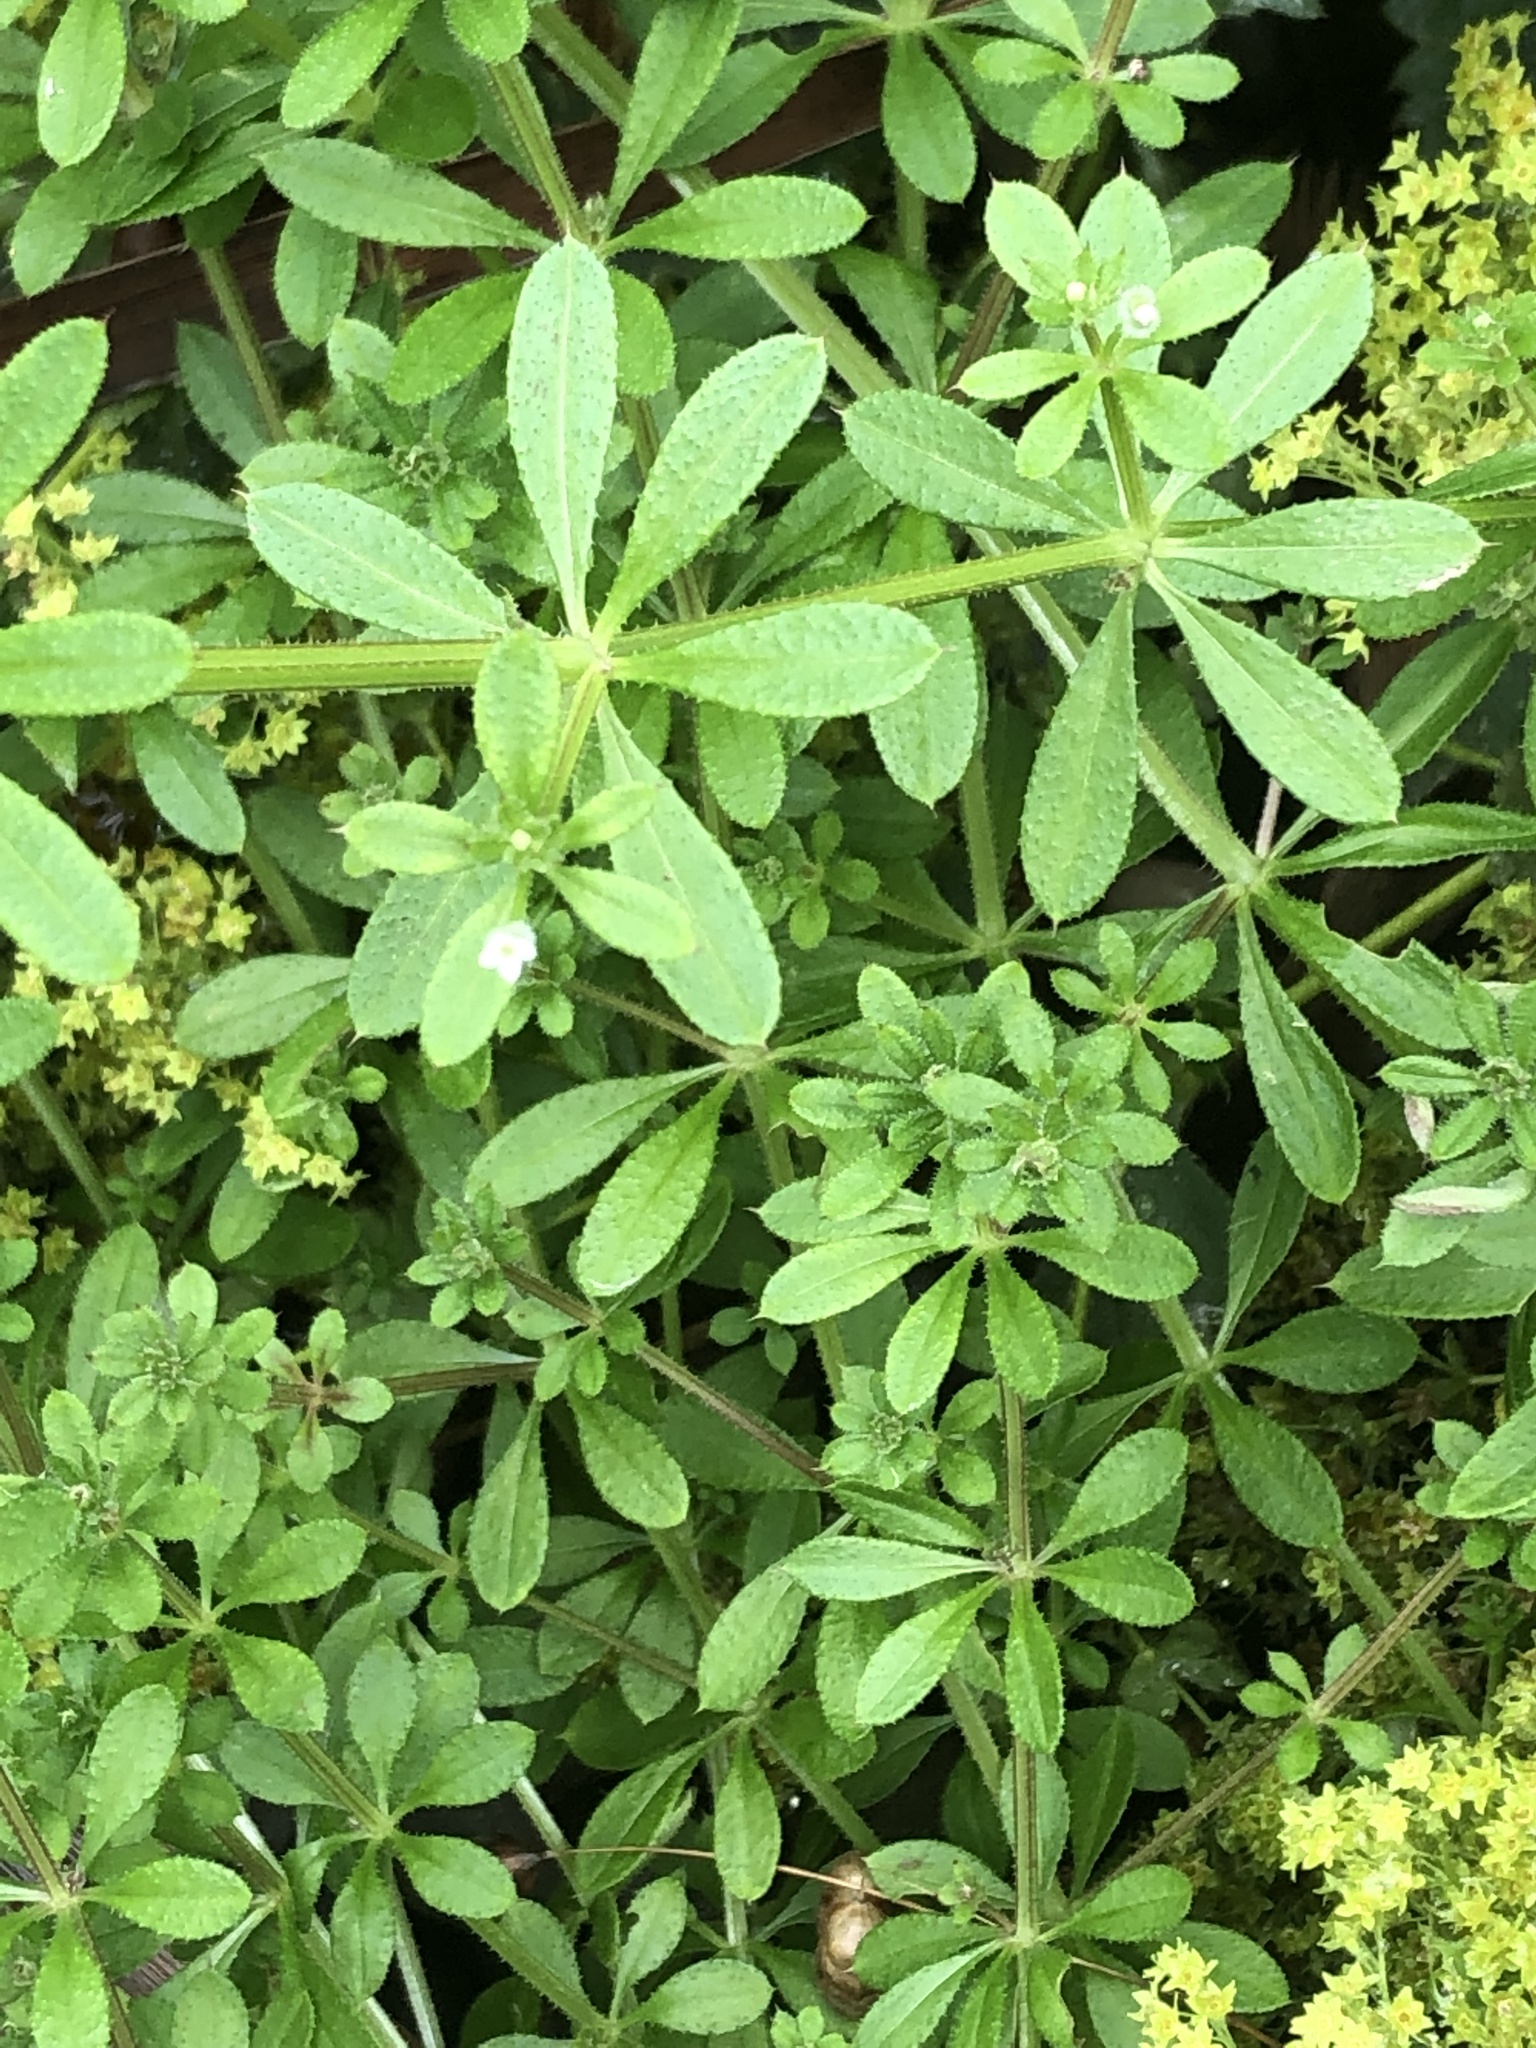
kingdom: Plantae
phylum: Tracheophyta
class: Magnoliopsida
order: Gentianales
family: Rubiaceae
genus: Galium
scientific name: Galium aparine
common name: Cleavers
